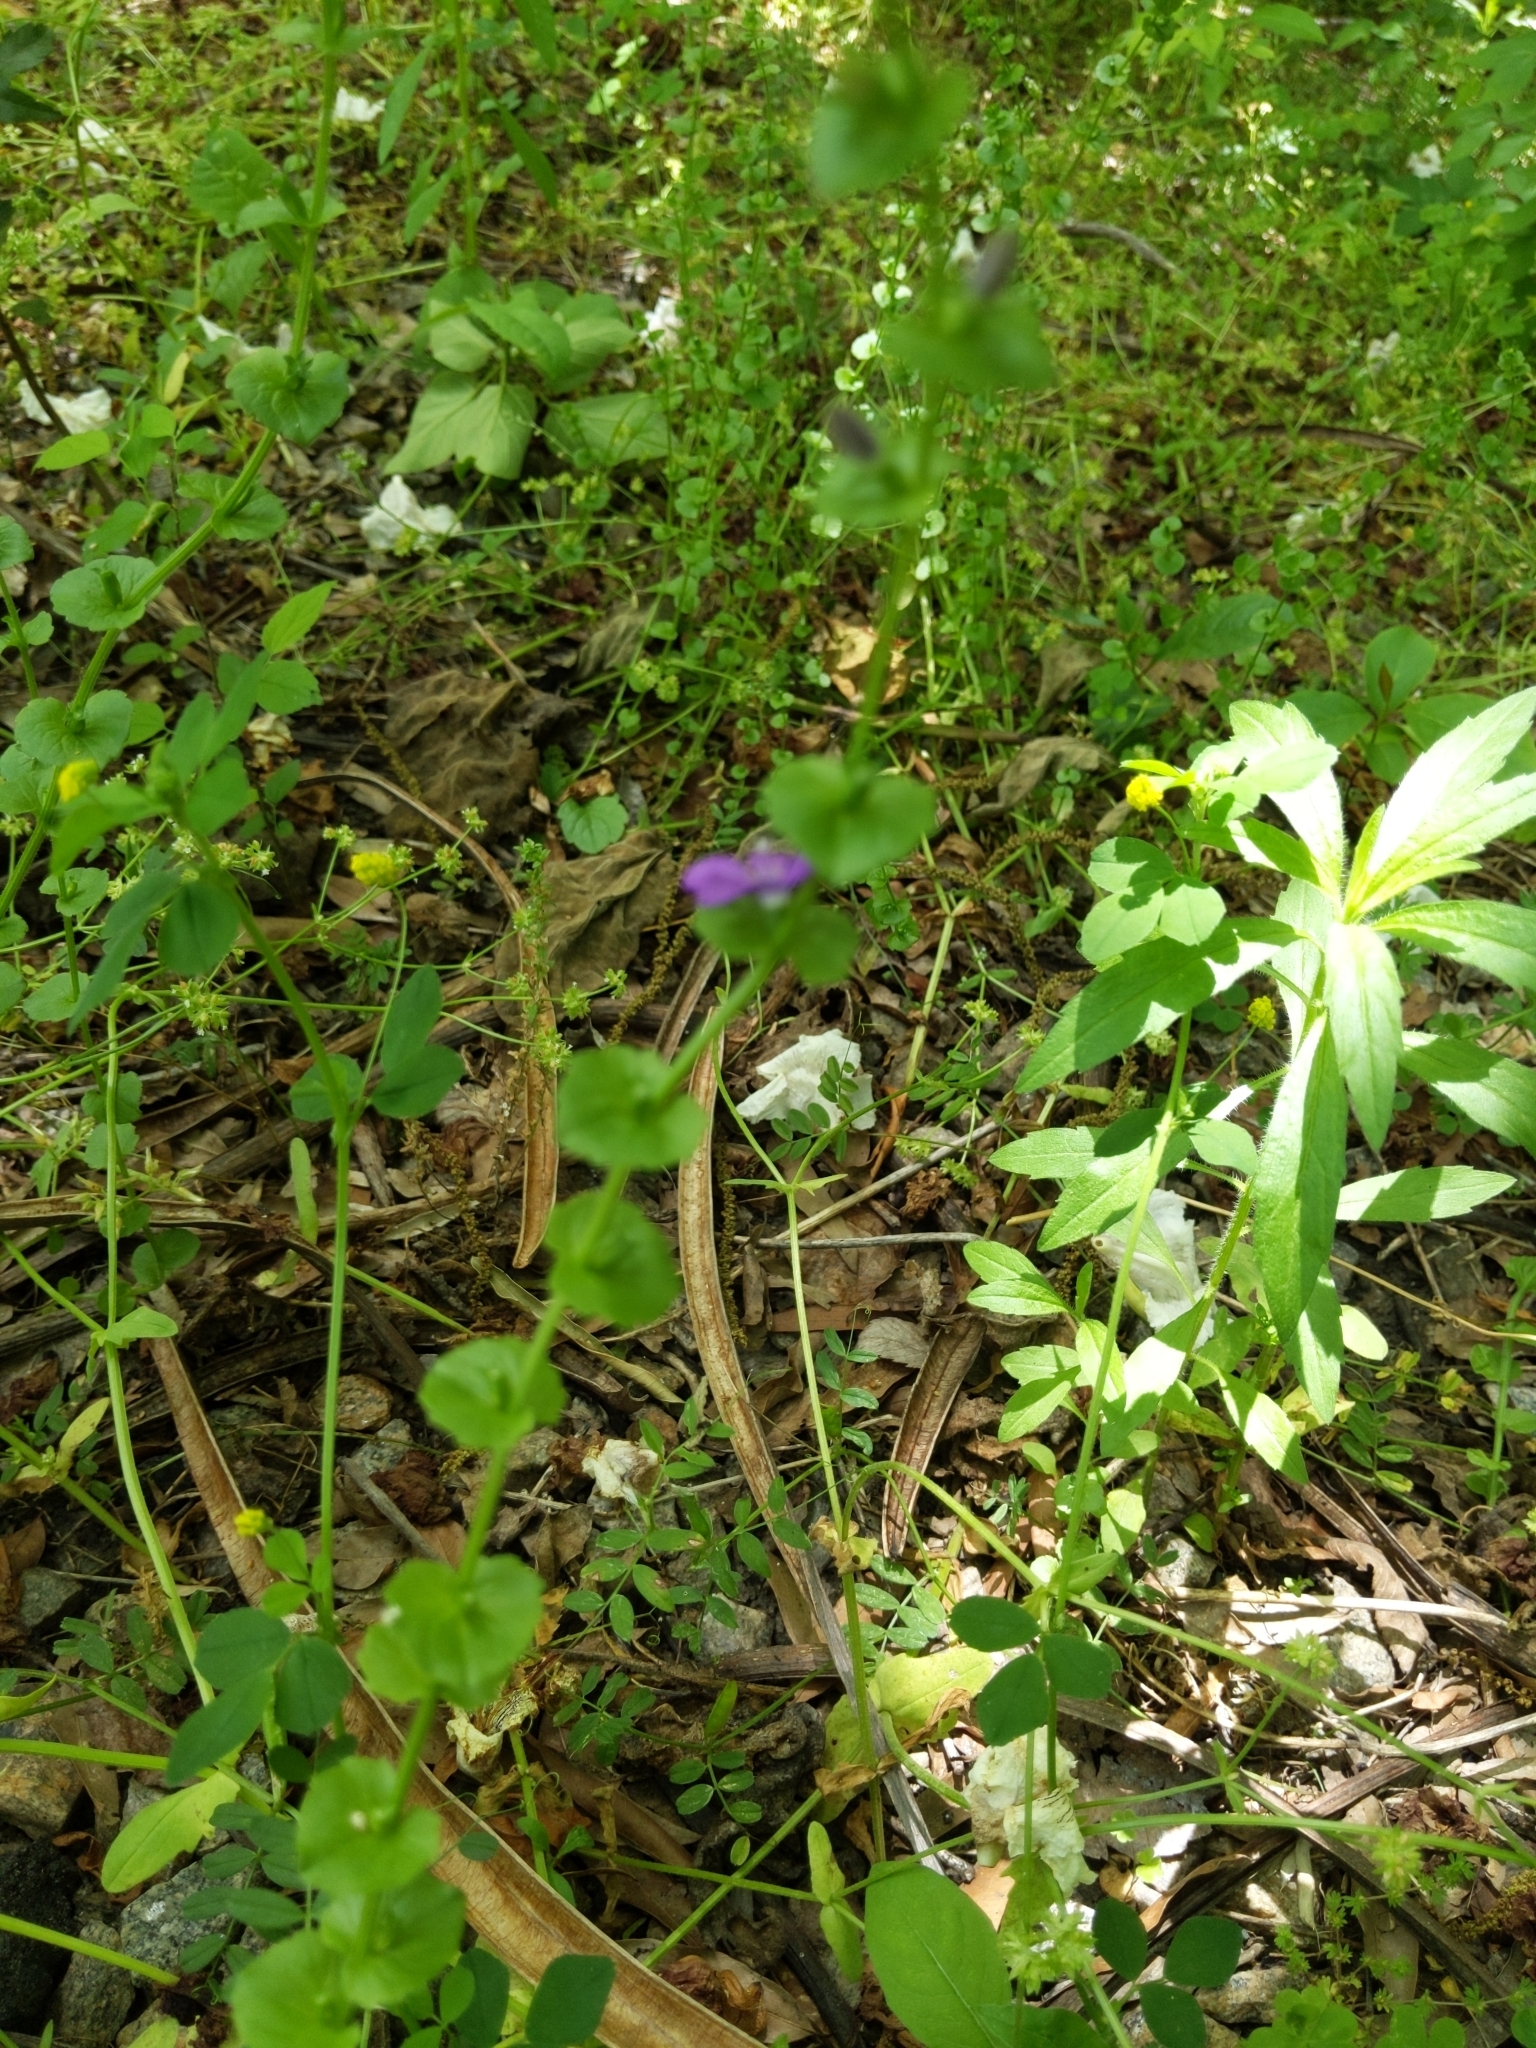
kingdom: Plantae
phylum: Tracheophyta
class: Magnoliopsida
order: Asterales
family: Campanulaceae
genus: Triodanis
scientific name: Triodanis perfoliata
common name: Clasping venus' looking-glass
